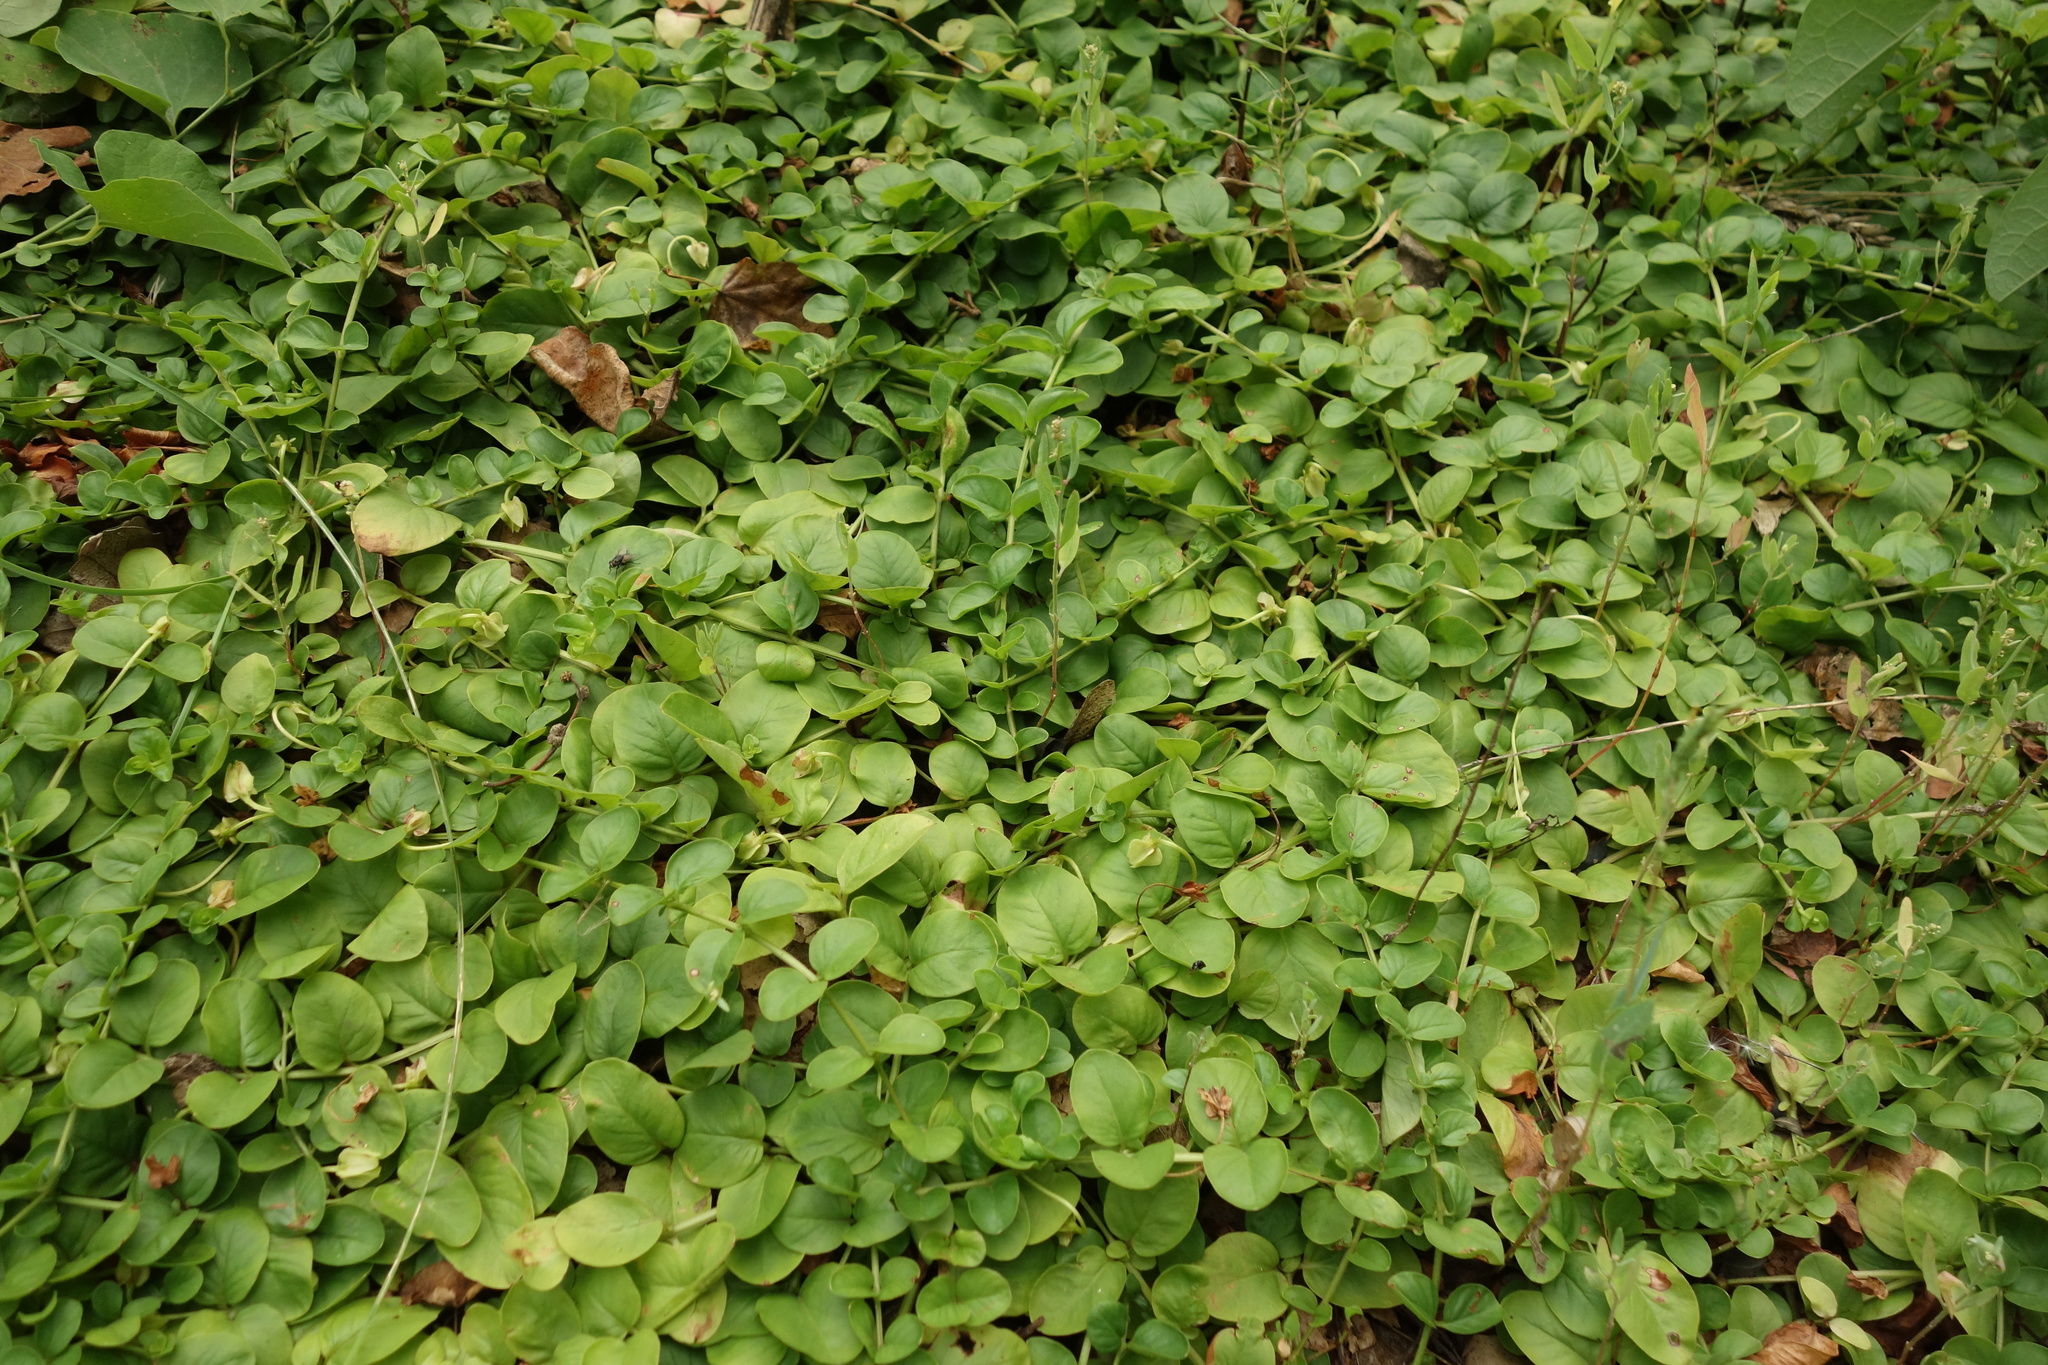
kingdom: Plantae
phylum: Tracheophyta
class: Magnoliopsida
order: Ericales
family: Primulaceae
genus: Lysimachia
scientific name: Lysimachia nummularia
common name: Moneywort
